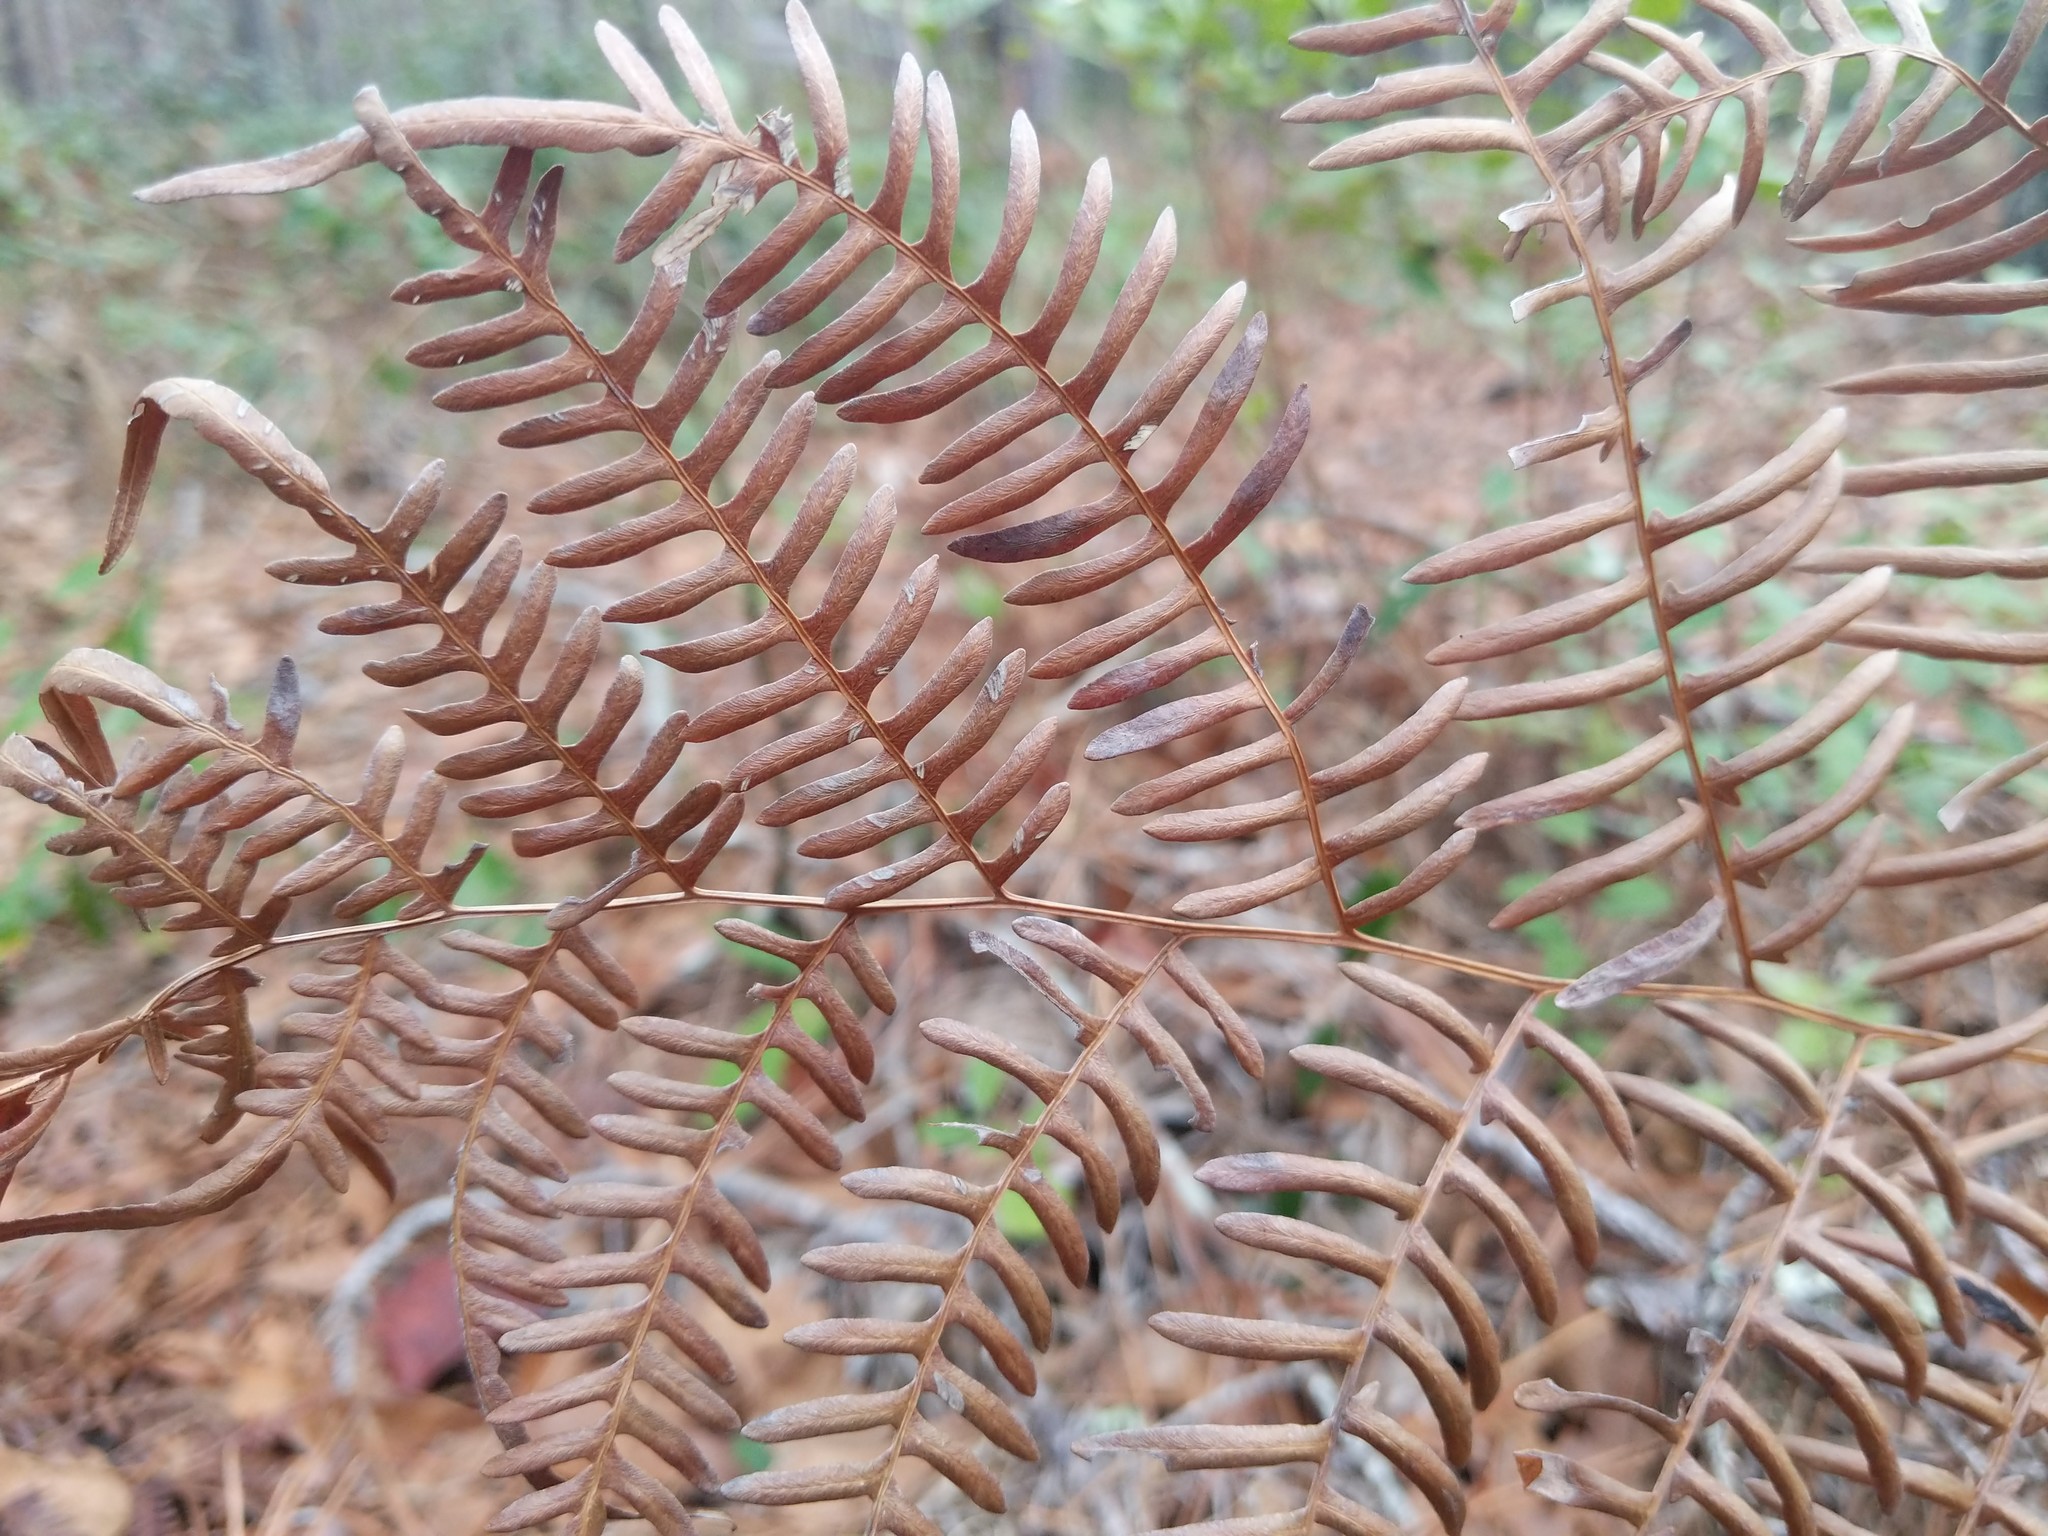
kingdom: Plantae
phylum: Tracheophyta
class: Polypodiopsida
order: Polypodiales
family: Dennstaedtiaceae
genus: Pteridium
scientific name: Pteridium aquilinum
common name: Bracken
